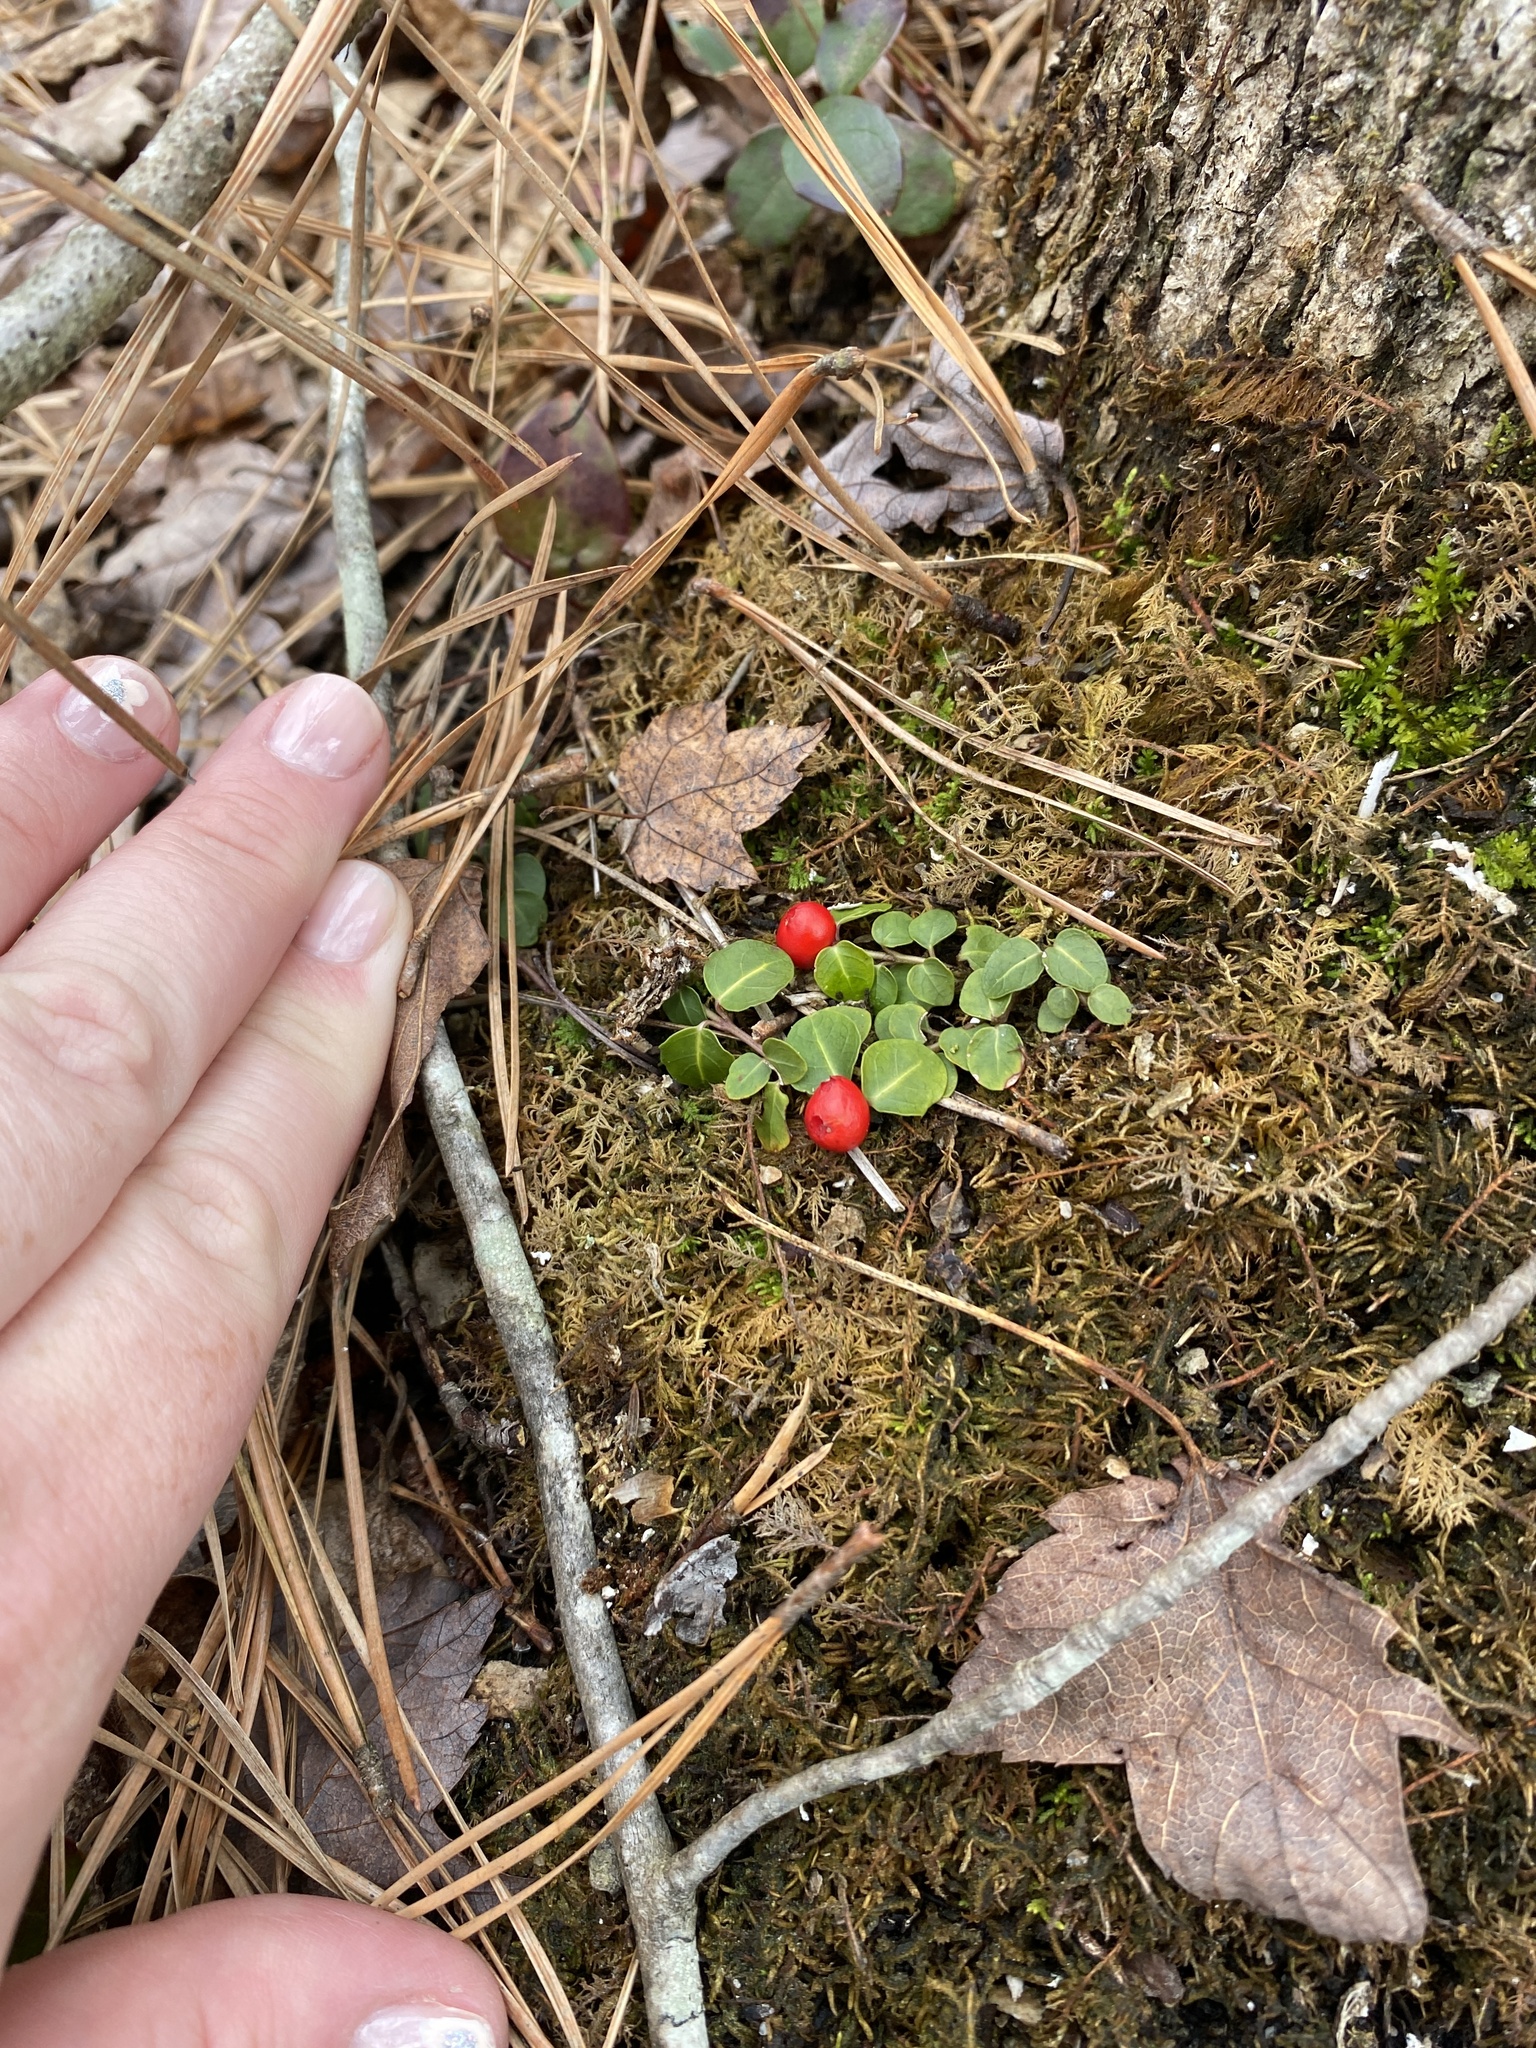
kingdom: Plantae
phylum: Tracheophyta
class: Magnoliopsida
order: Gentianales
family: Rubiaceae
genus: Mitchella
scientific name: Mitchella repens
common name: Partridge-berry
